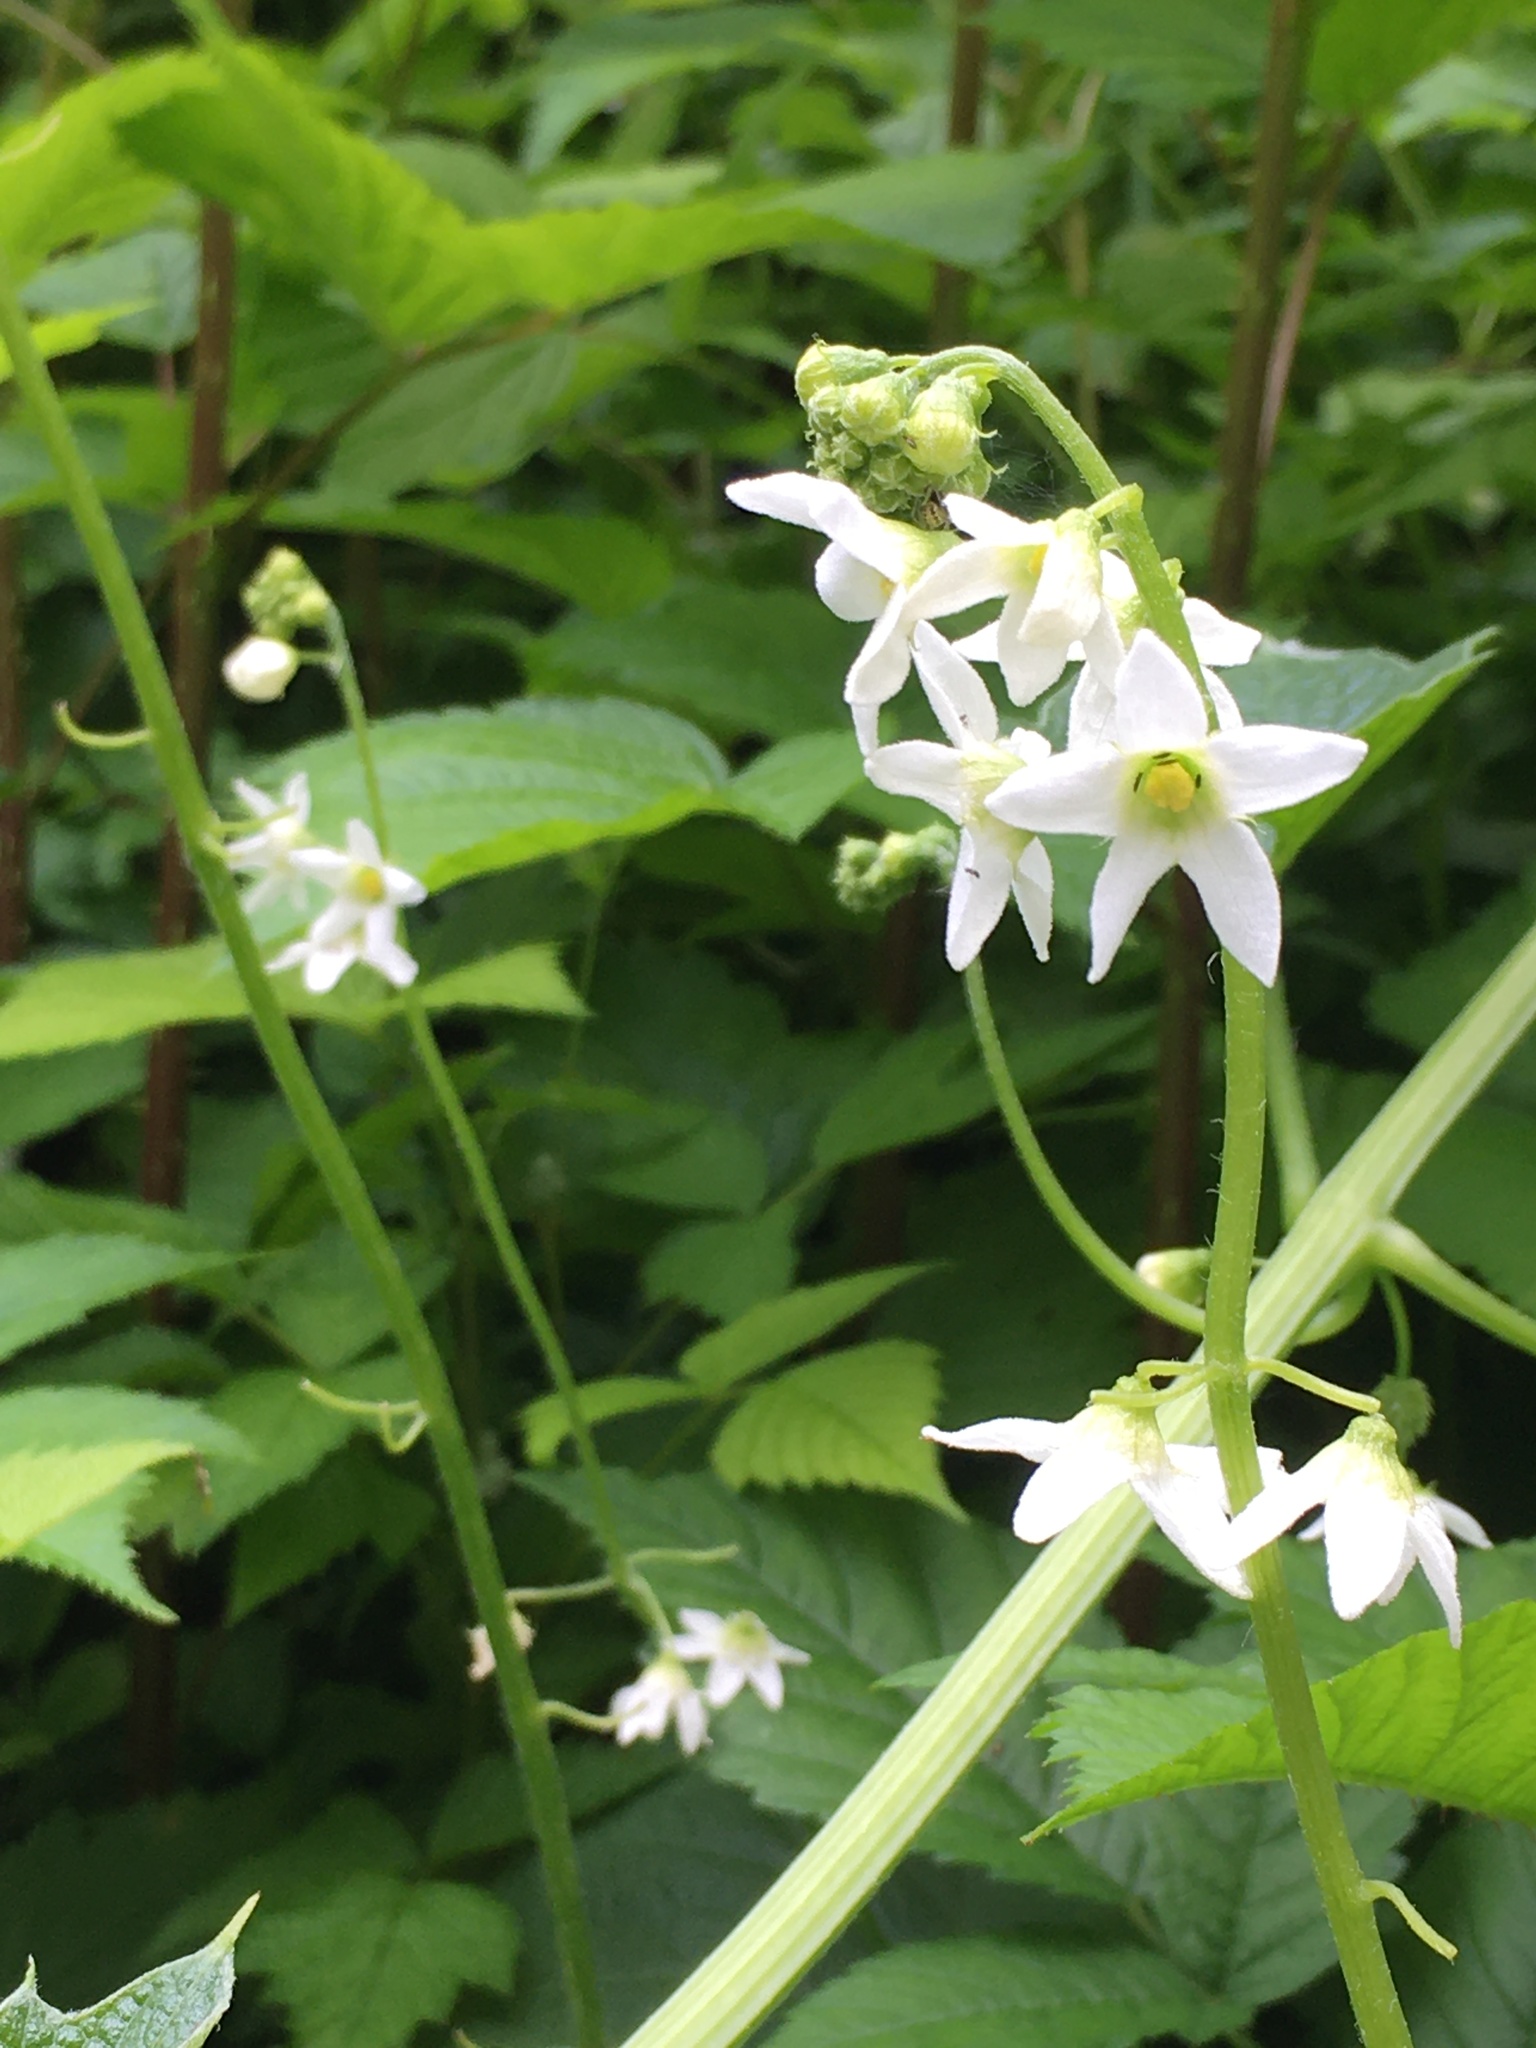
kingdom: Plantae
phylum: Tracheophyta
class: Magnoliopsida
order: Cucurbitales
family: Cucurbitaceae
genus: Marah
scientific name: Marah oregana
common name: Coastal manroot
